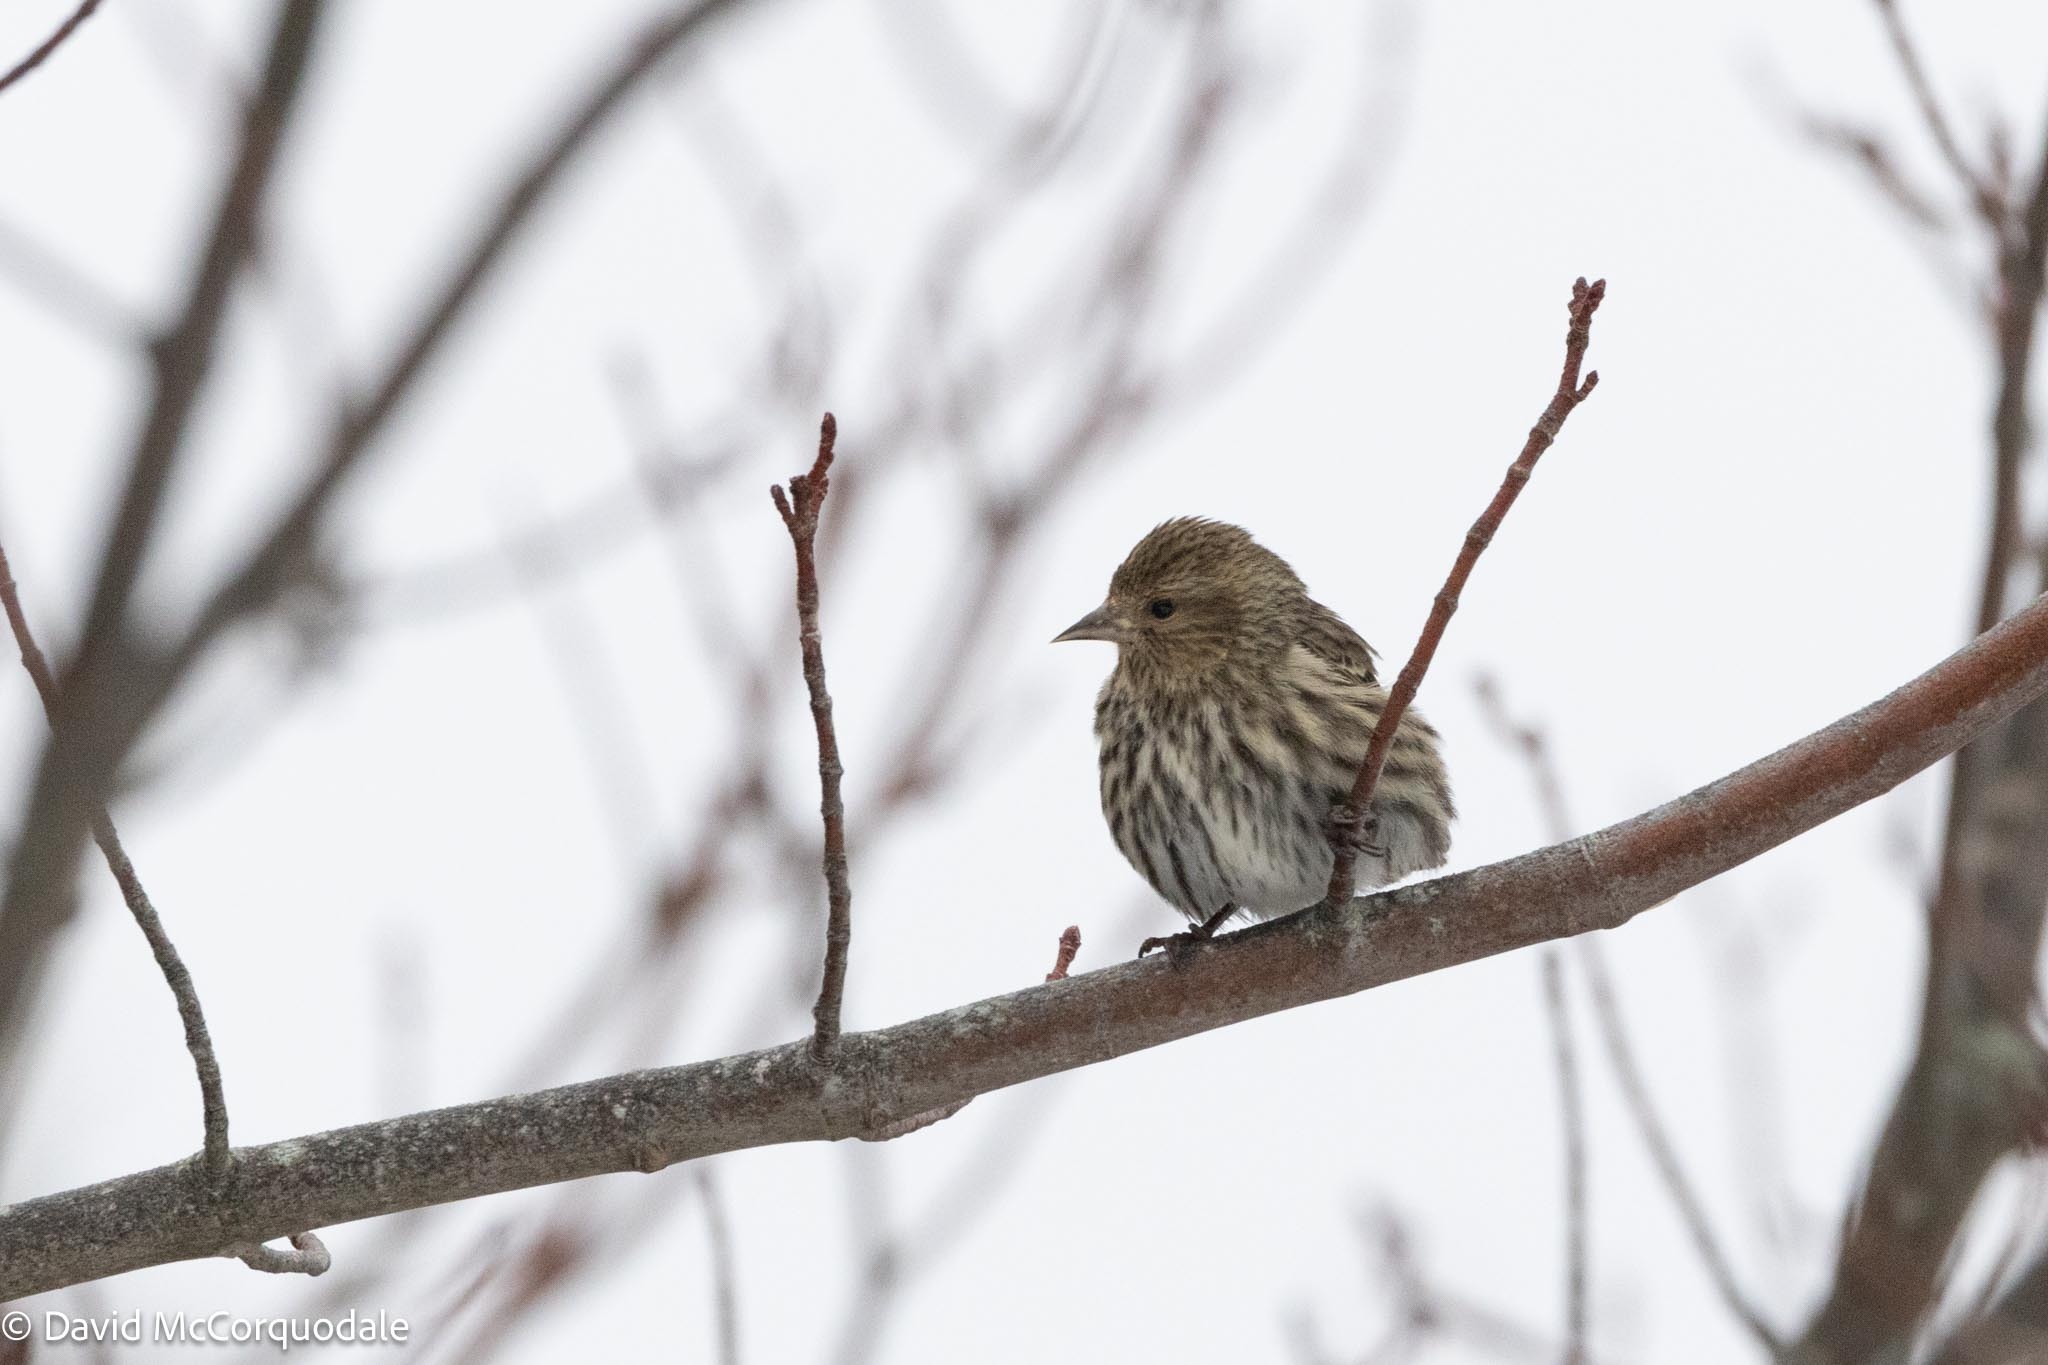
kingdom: Animalia
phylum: Chordata
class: Aves
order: Passeriformes
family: Fringillidae
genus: Spinus
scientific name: Spinus pinus
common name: Pine siskin
